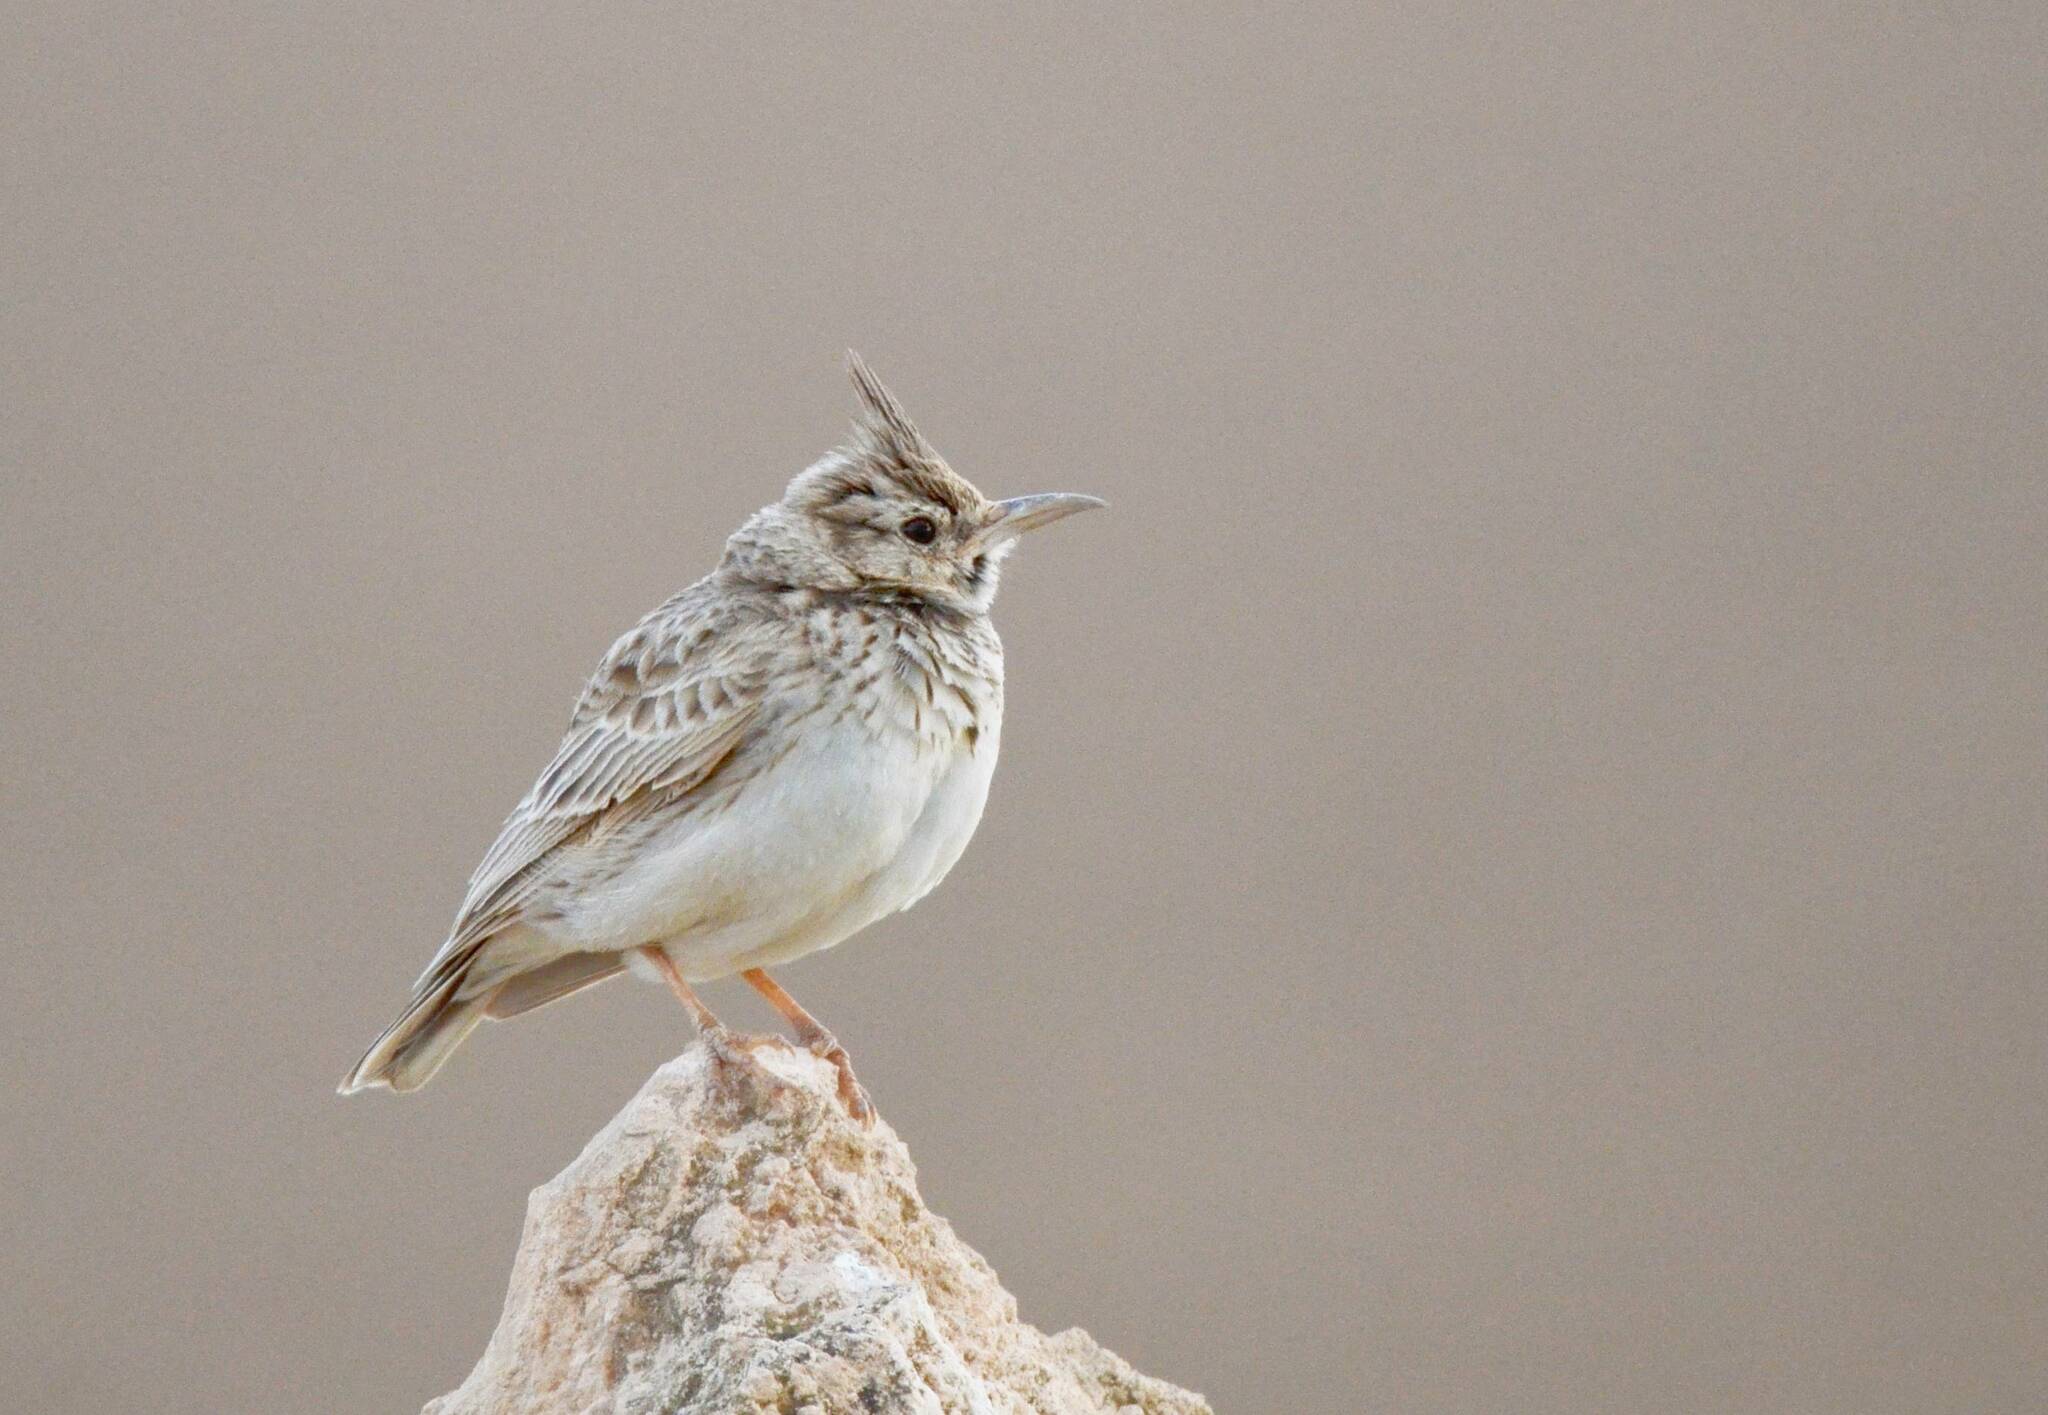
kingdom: Animalia
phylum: Chordata
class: Aves
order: Passeriformes
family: Alaudidae
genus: Galerida
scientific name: Galerida cristata
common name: Crested lark
